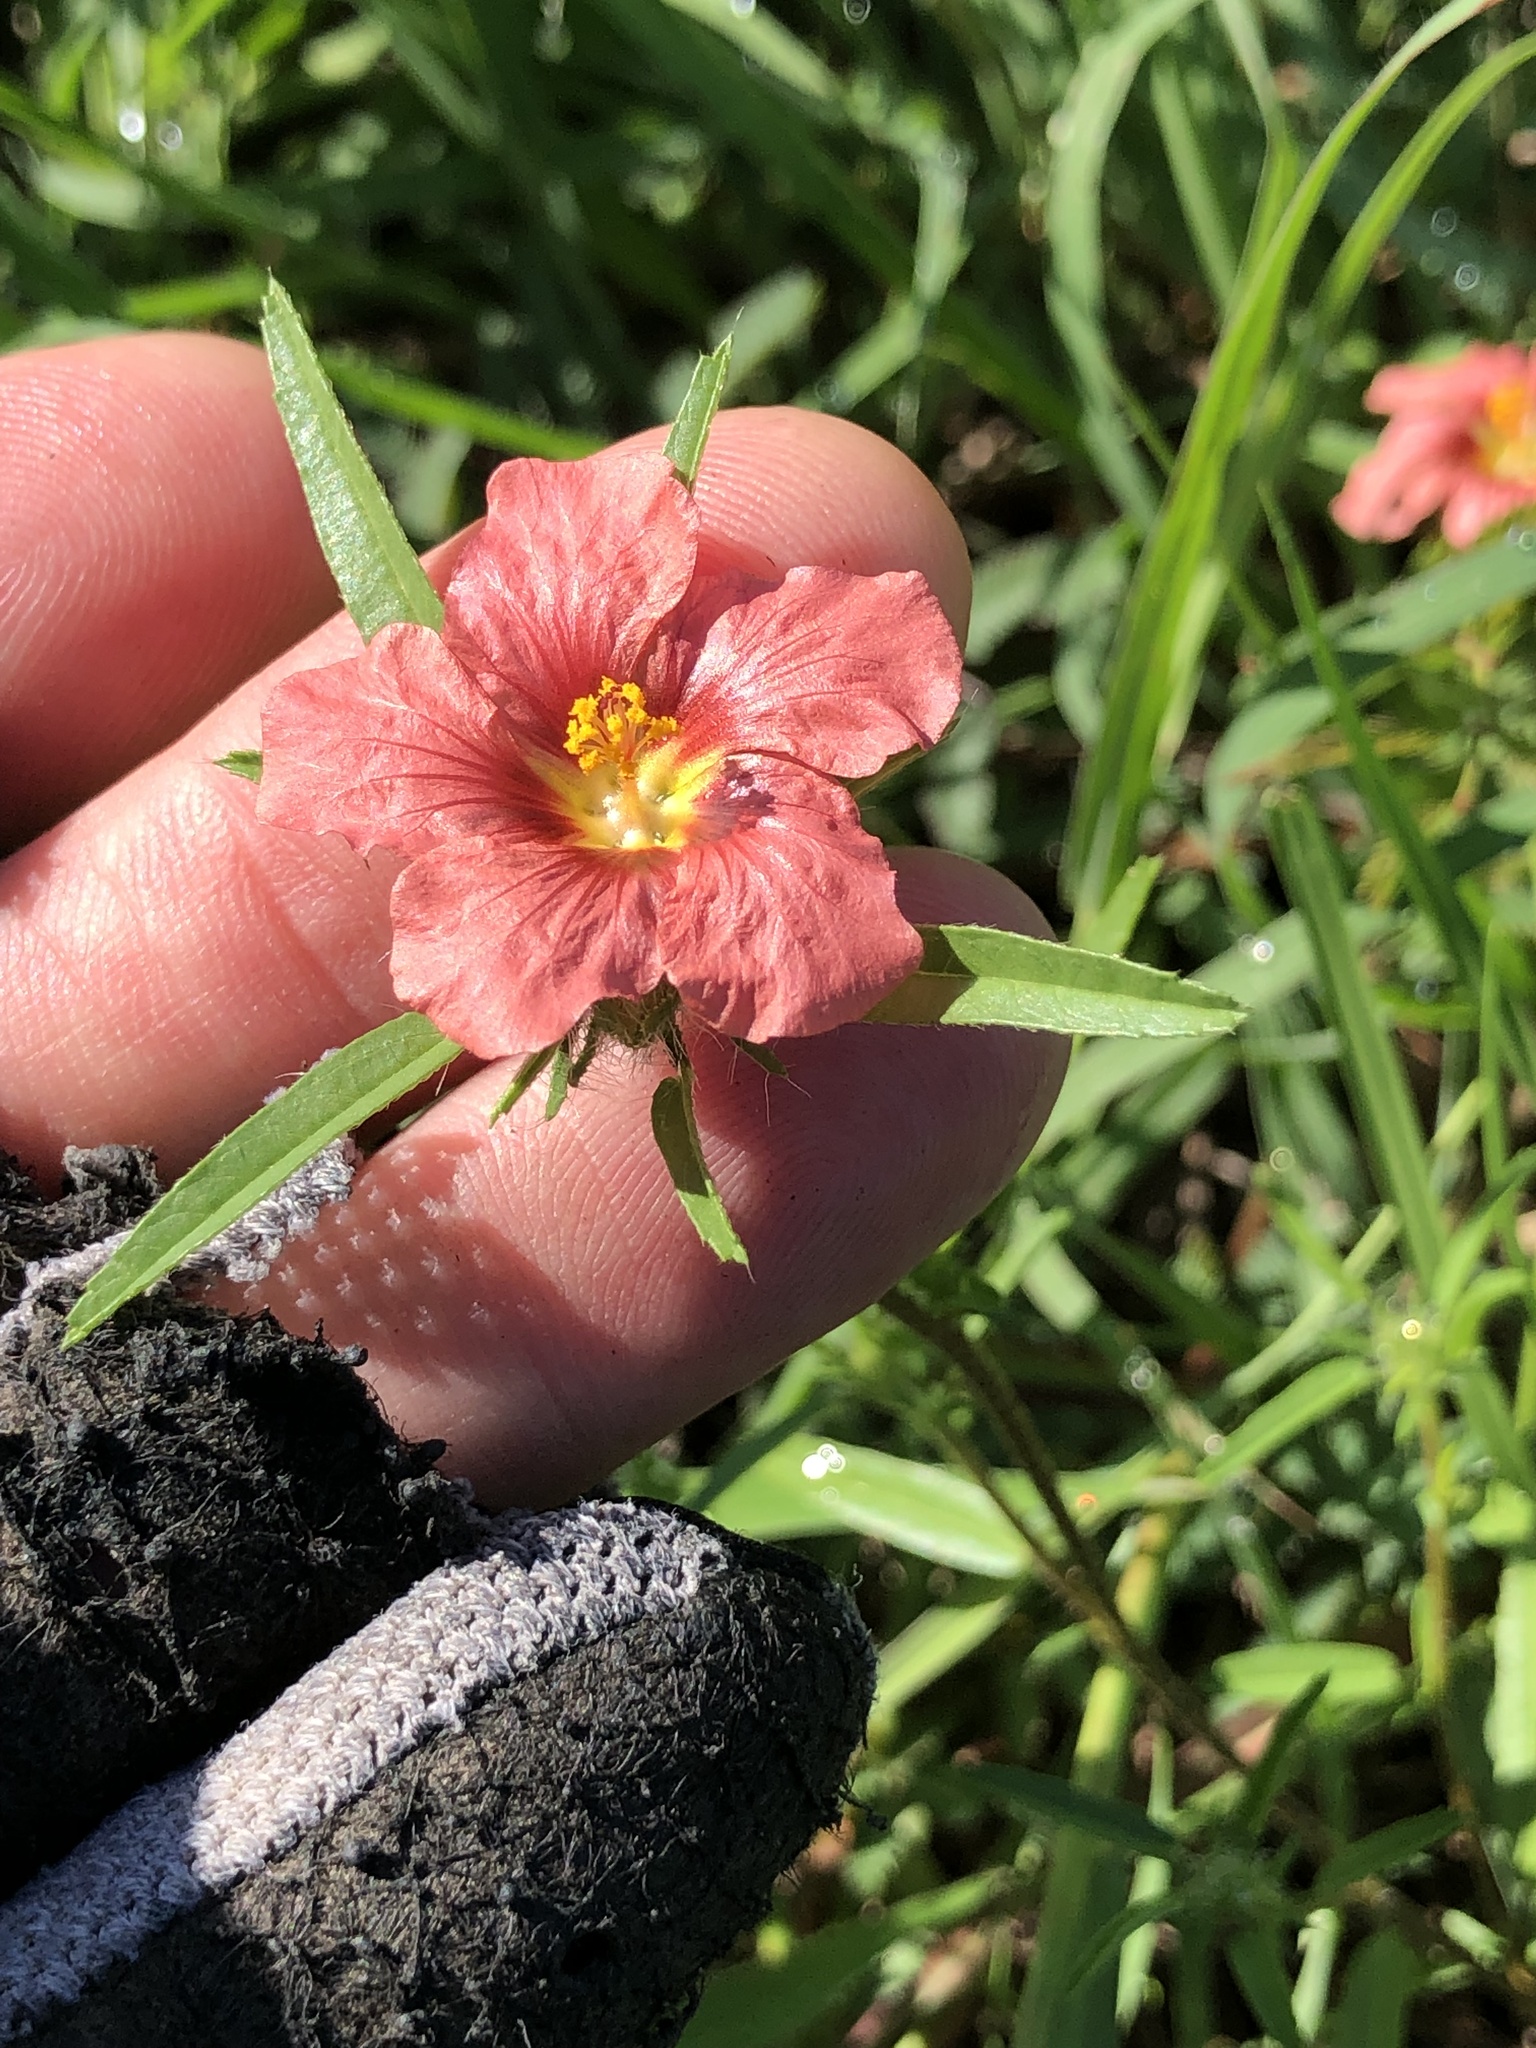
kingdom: Plantae
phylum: Tracheophyta
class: Magnoliopsida
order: Malvales
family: Malvaceae
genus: Sida
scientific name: Sida ciliaris
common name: Bracted fanpetals
